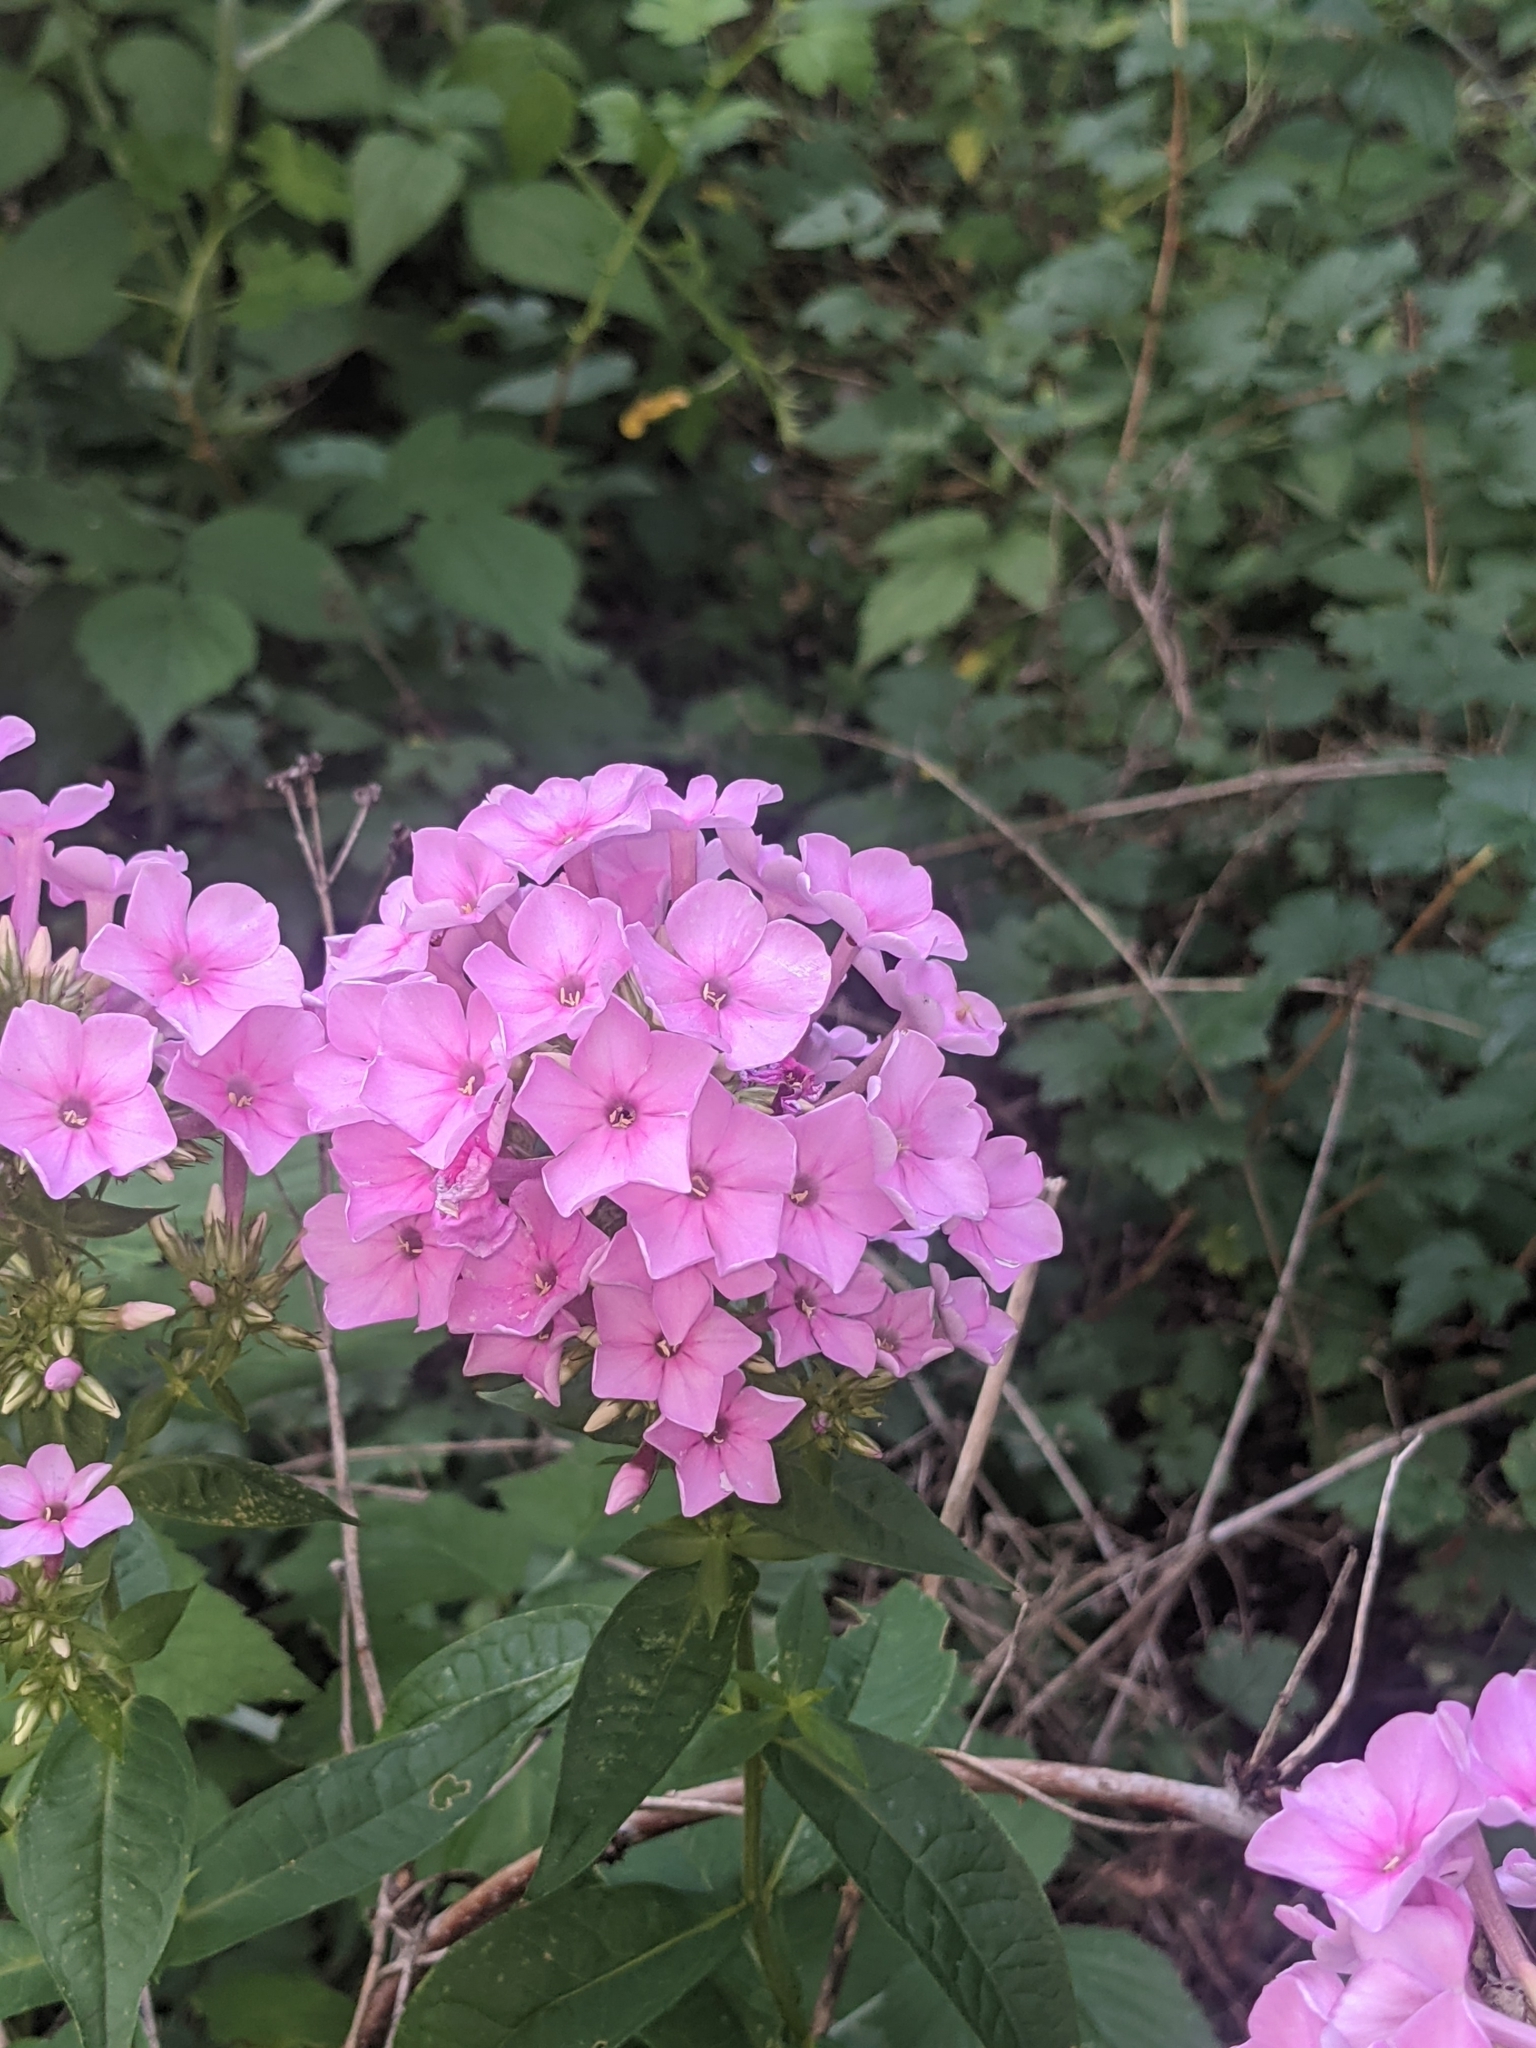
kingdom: Plantae
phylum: Tracheophyta
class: Magnoliopsida
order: Ericales
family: Polemoniaceae
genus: Phlox
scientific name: Phlox paniculata
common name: Fall phlox
